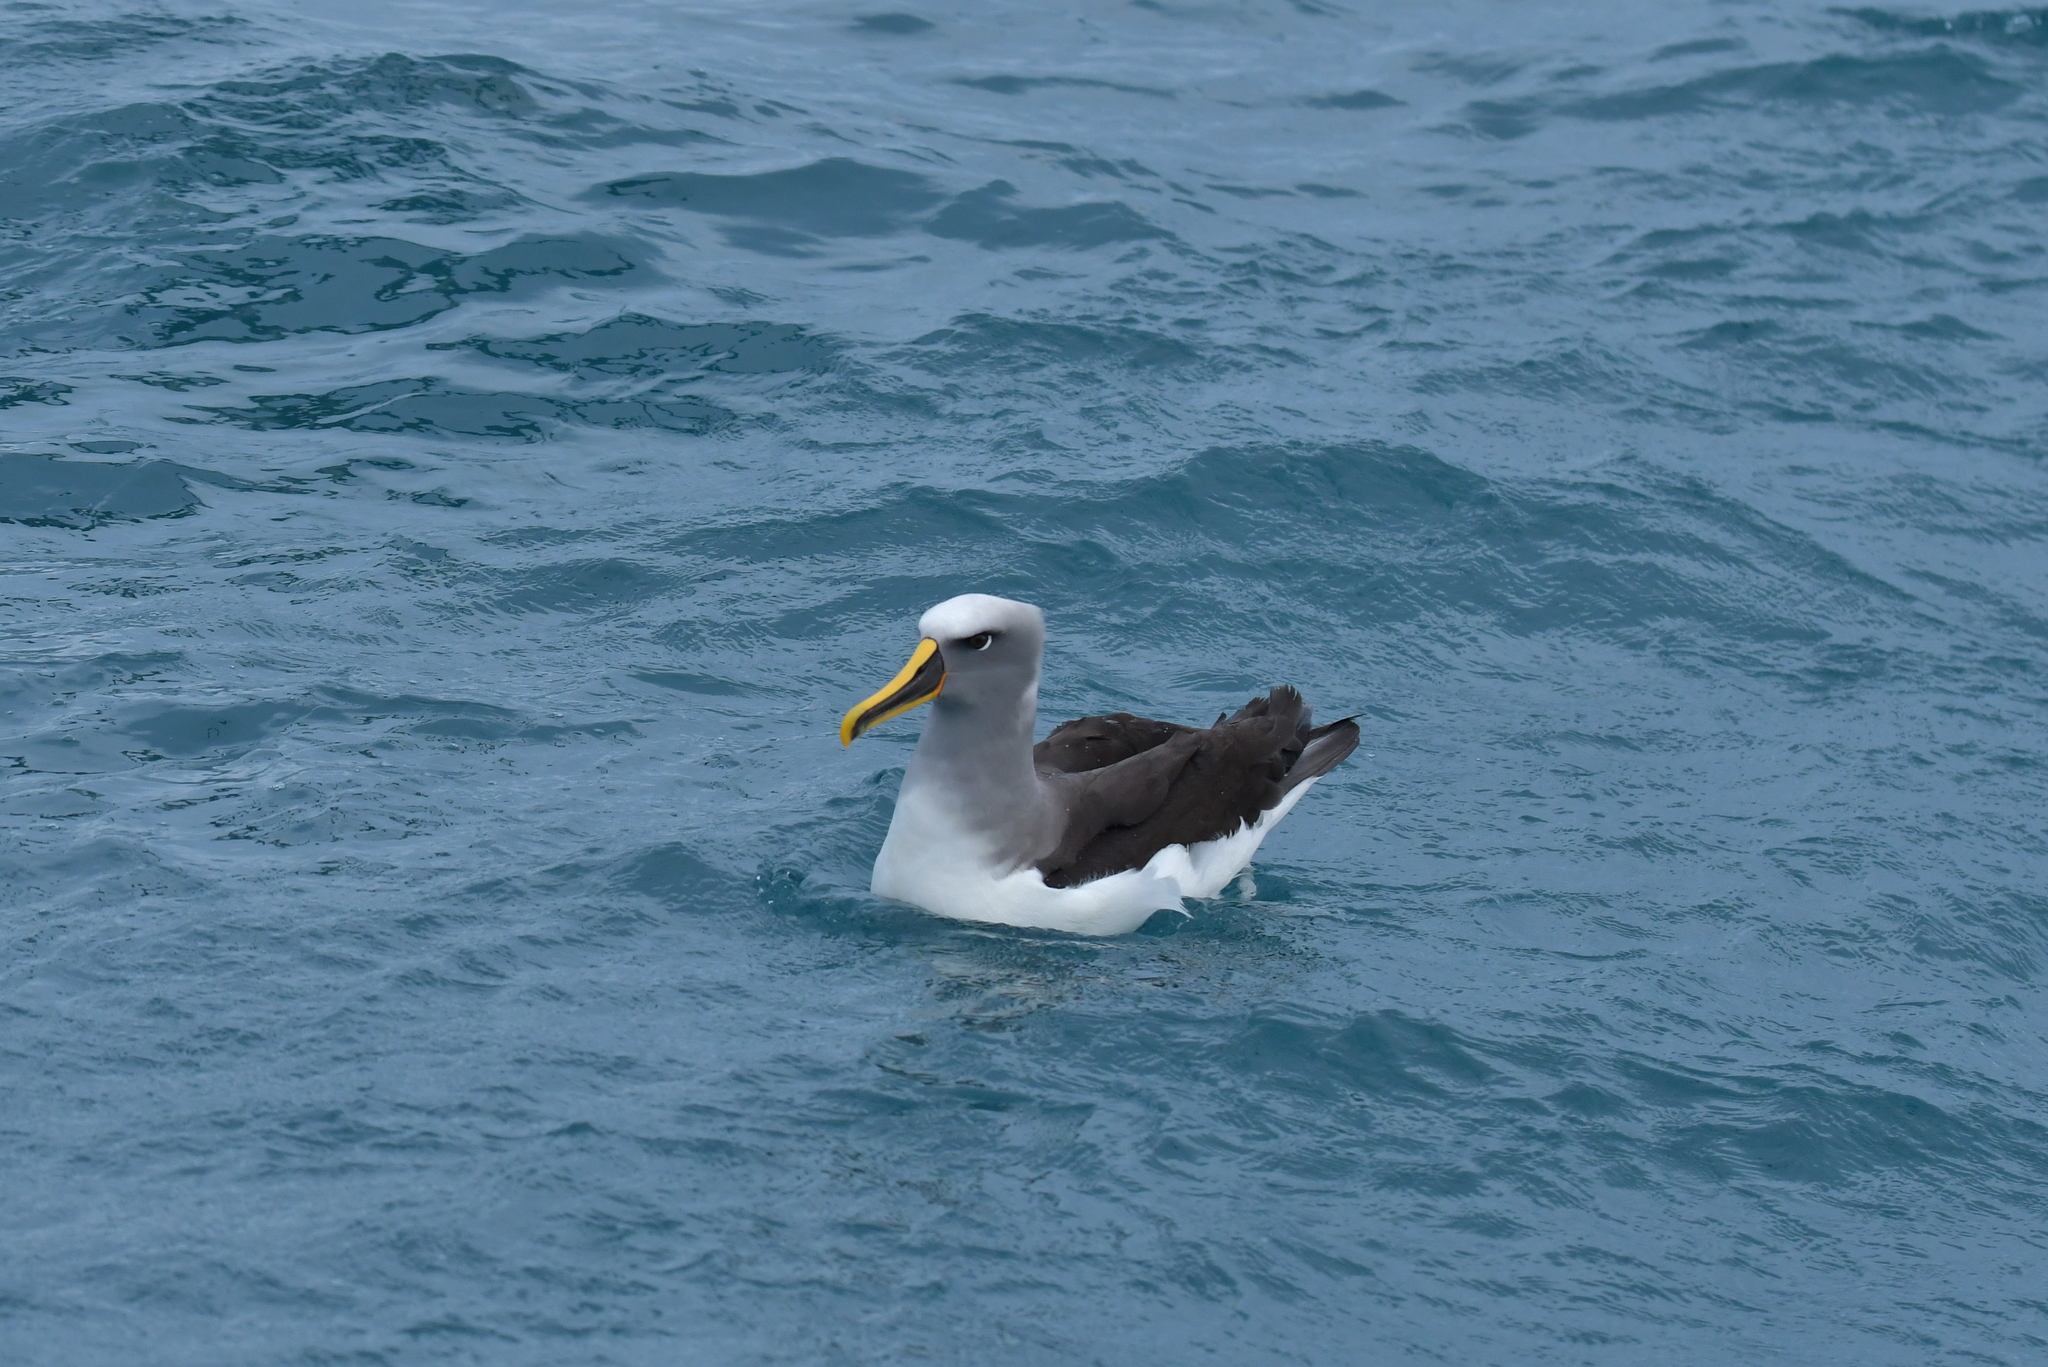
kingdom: Animalia
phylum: Chordata
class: Aves
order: Procellariiformes
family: Diomedeidae
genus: Thalassarche
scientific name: Thalassarche bulleri
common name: Buller's albatross
